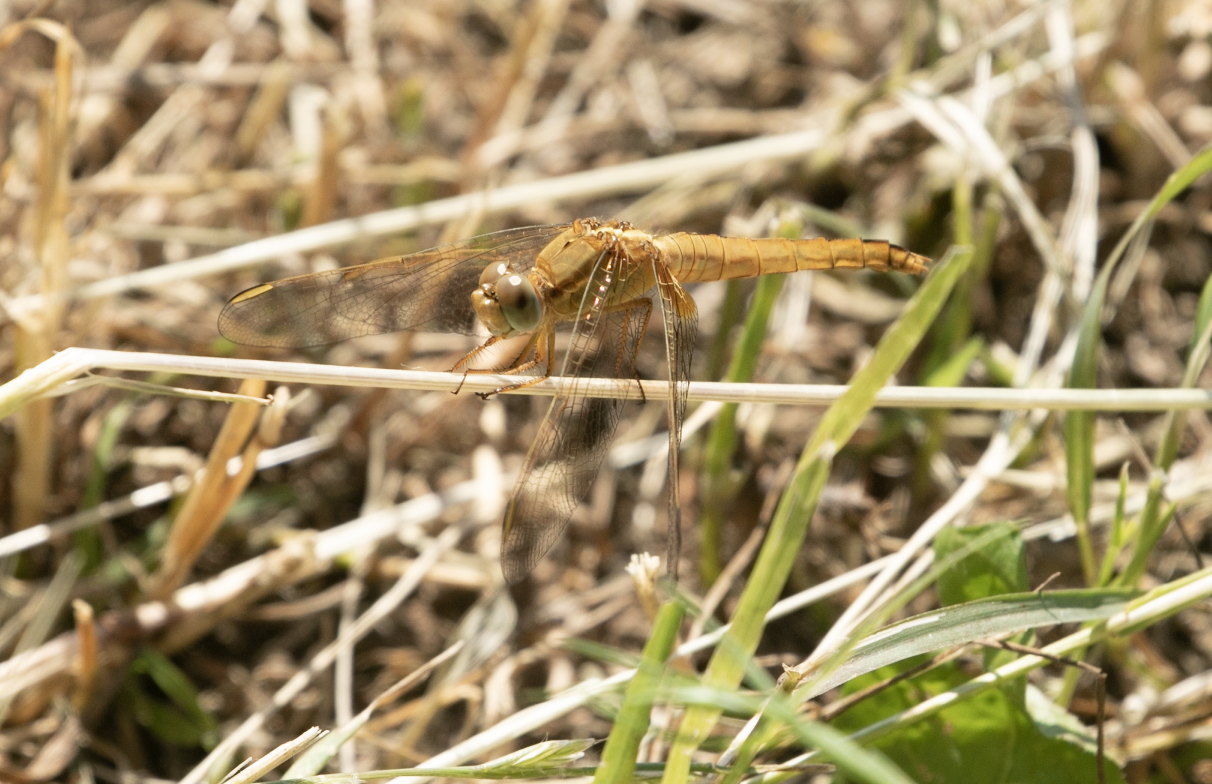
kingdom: Animalia
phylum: Arthropoda
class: Insecta
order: Odonata
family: Libellulidae
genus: Crocothemis
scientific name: Crocothemis erythraea
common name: Scarlet dragonfly
